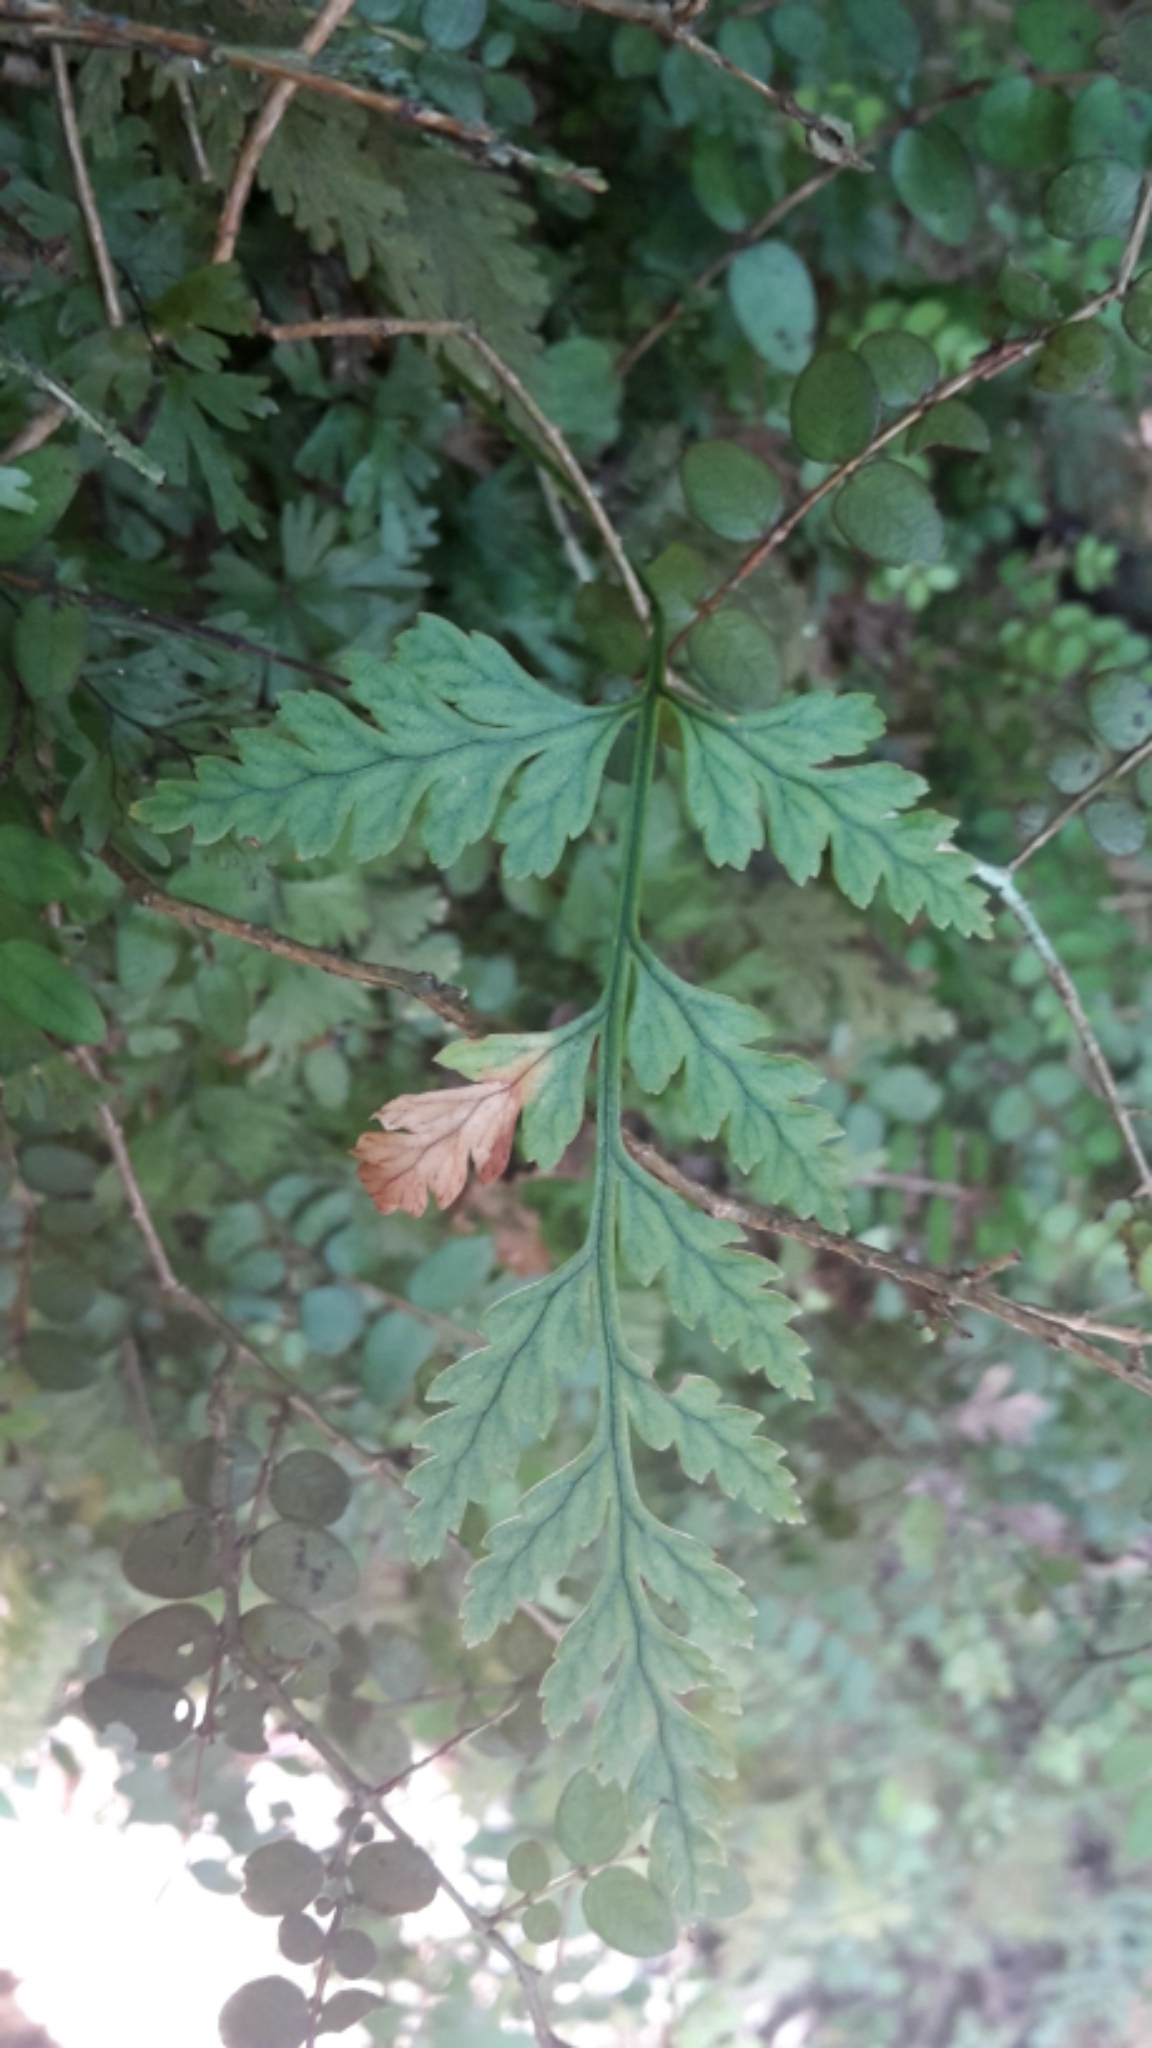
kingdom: Plantae
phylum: Tracheophyta
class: Polypodiopsida
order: Polypodiales
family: Dryopteridaceae
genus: Rumohra
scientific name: Rumohra adiantiformis
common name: Leather fern
